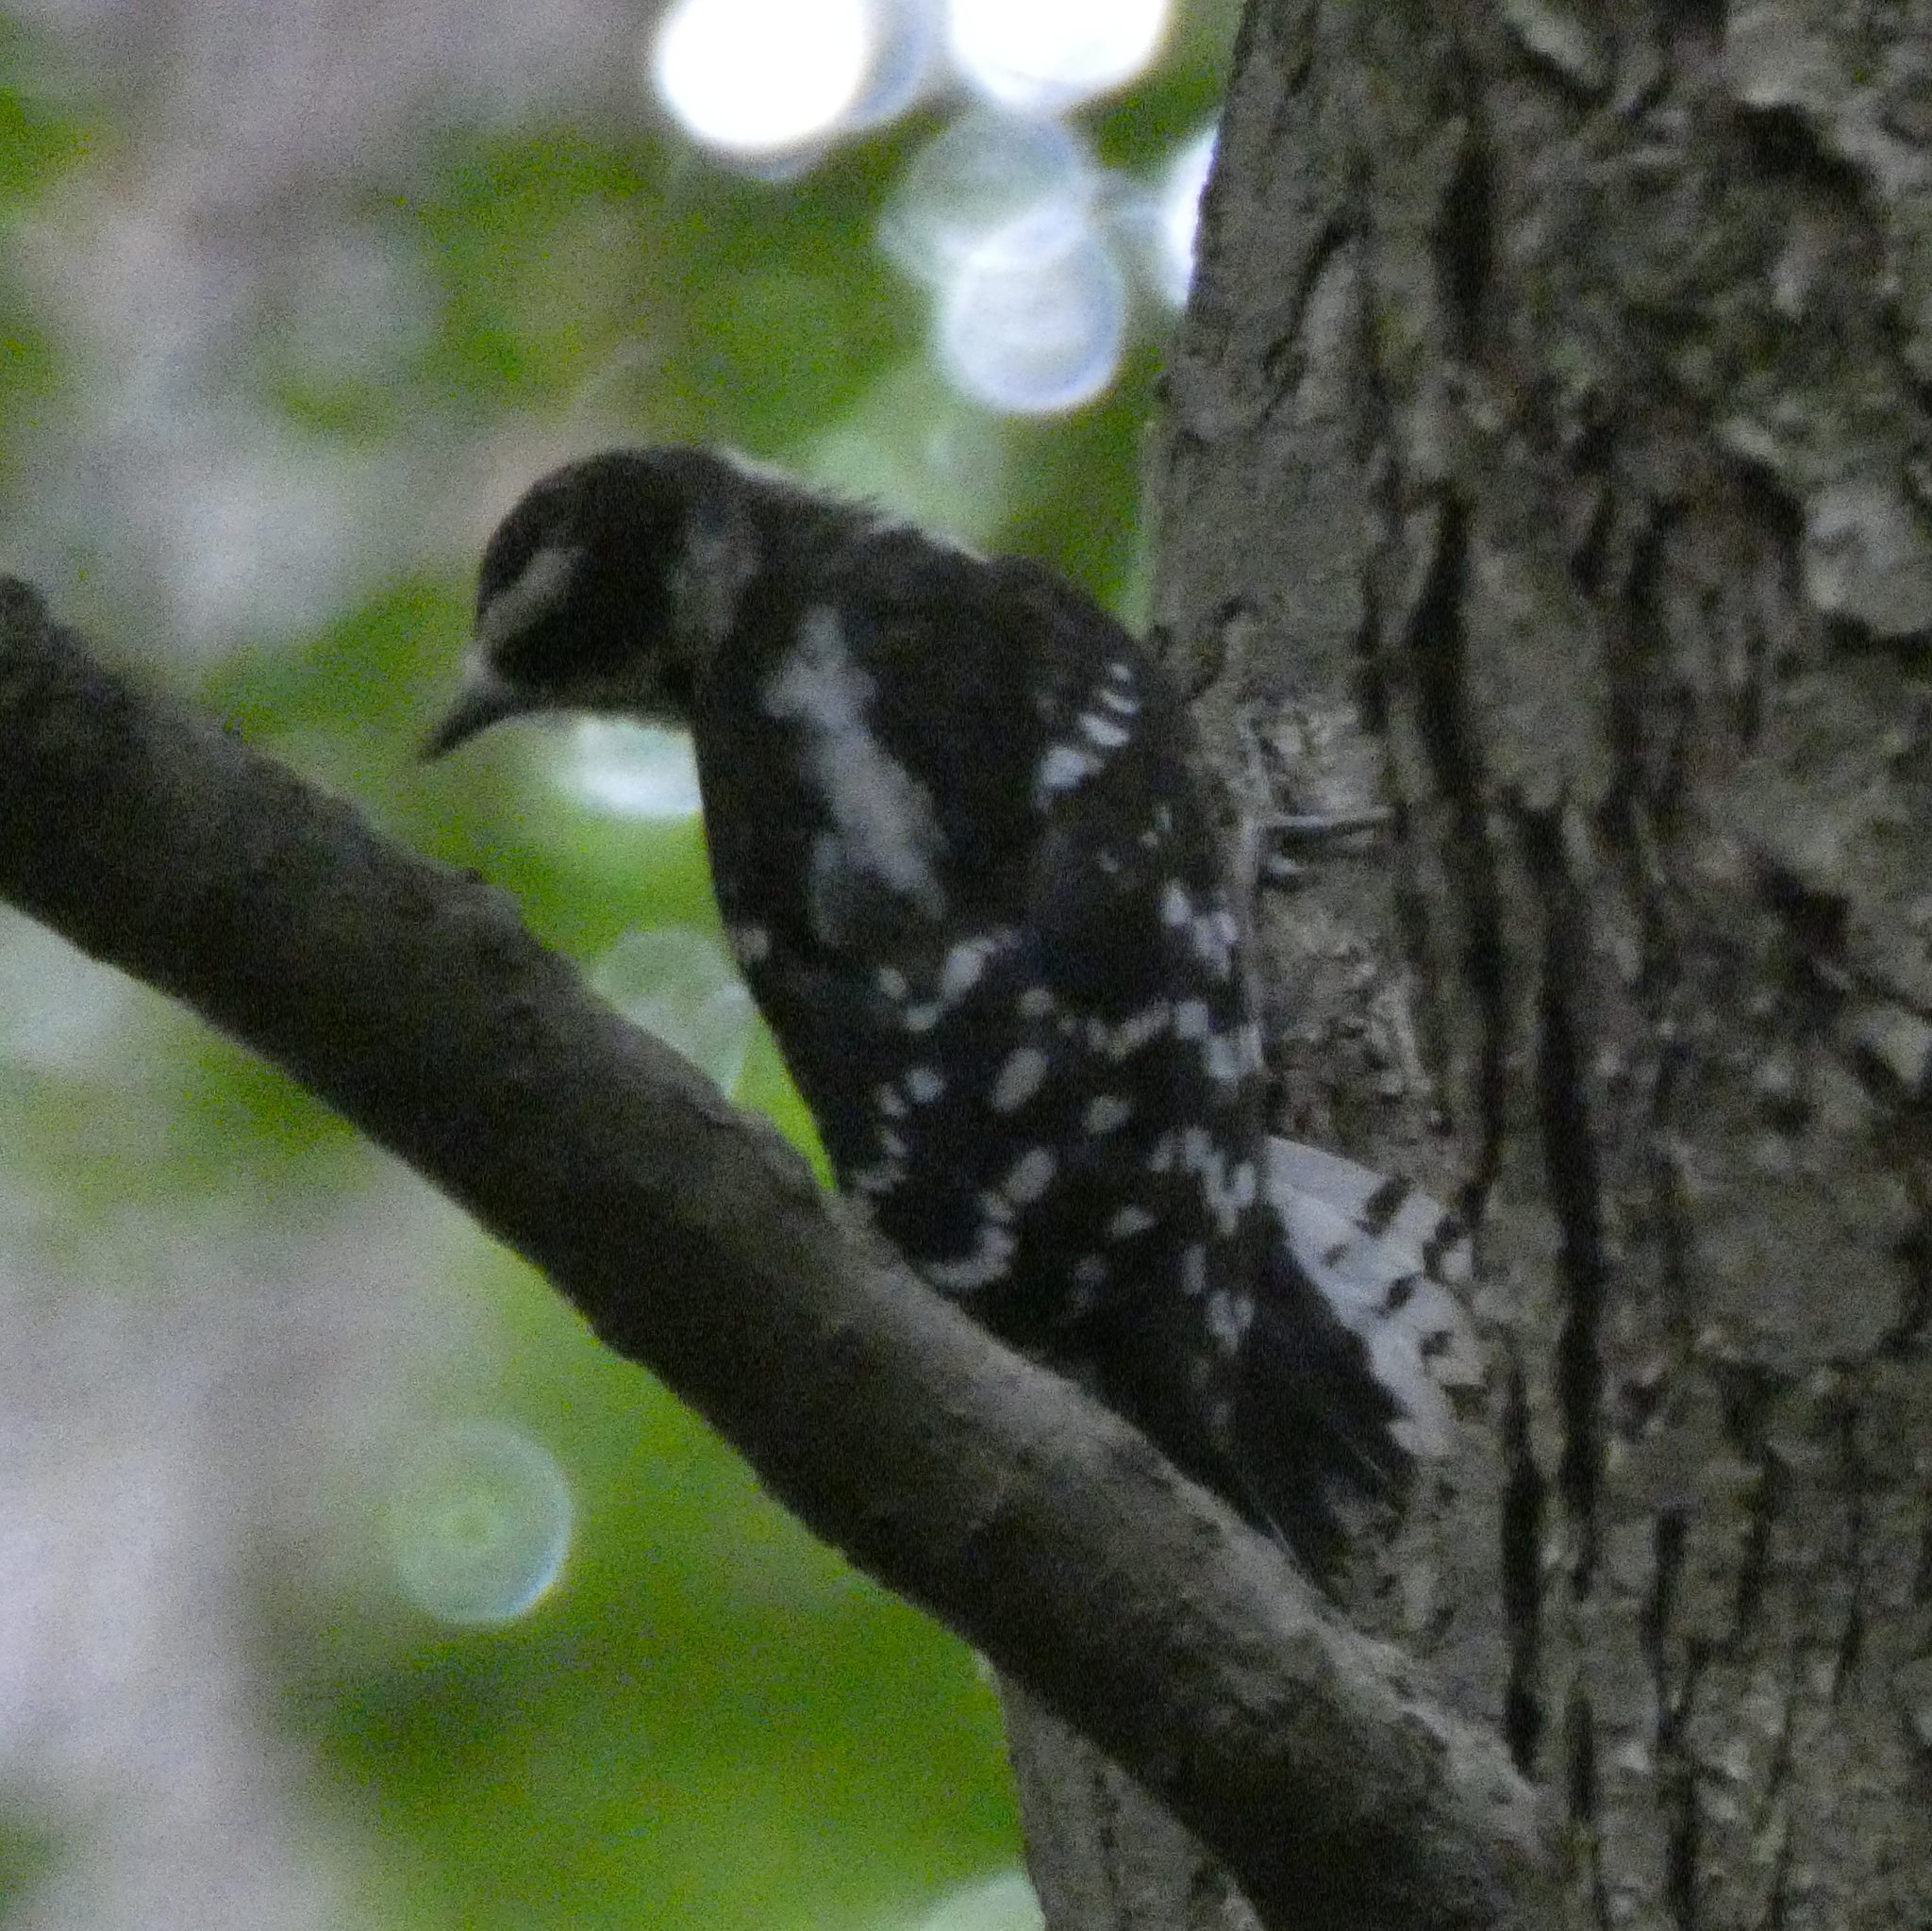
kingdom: Animalia
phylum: Chordata
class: Aves
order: Piciformes
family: Picidae
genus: Dryobates
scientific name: Dryobates pubescens
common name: Downy woodpecker
